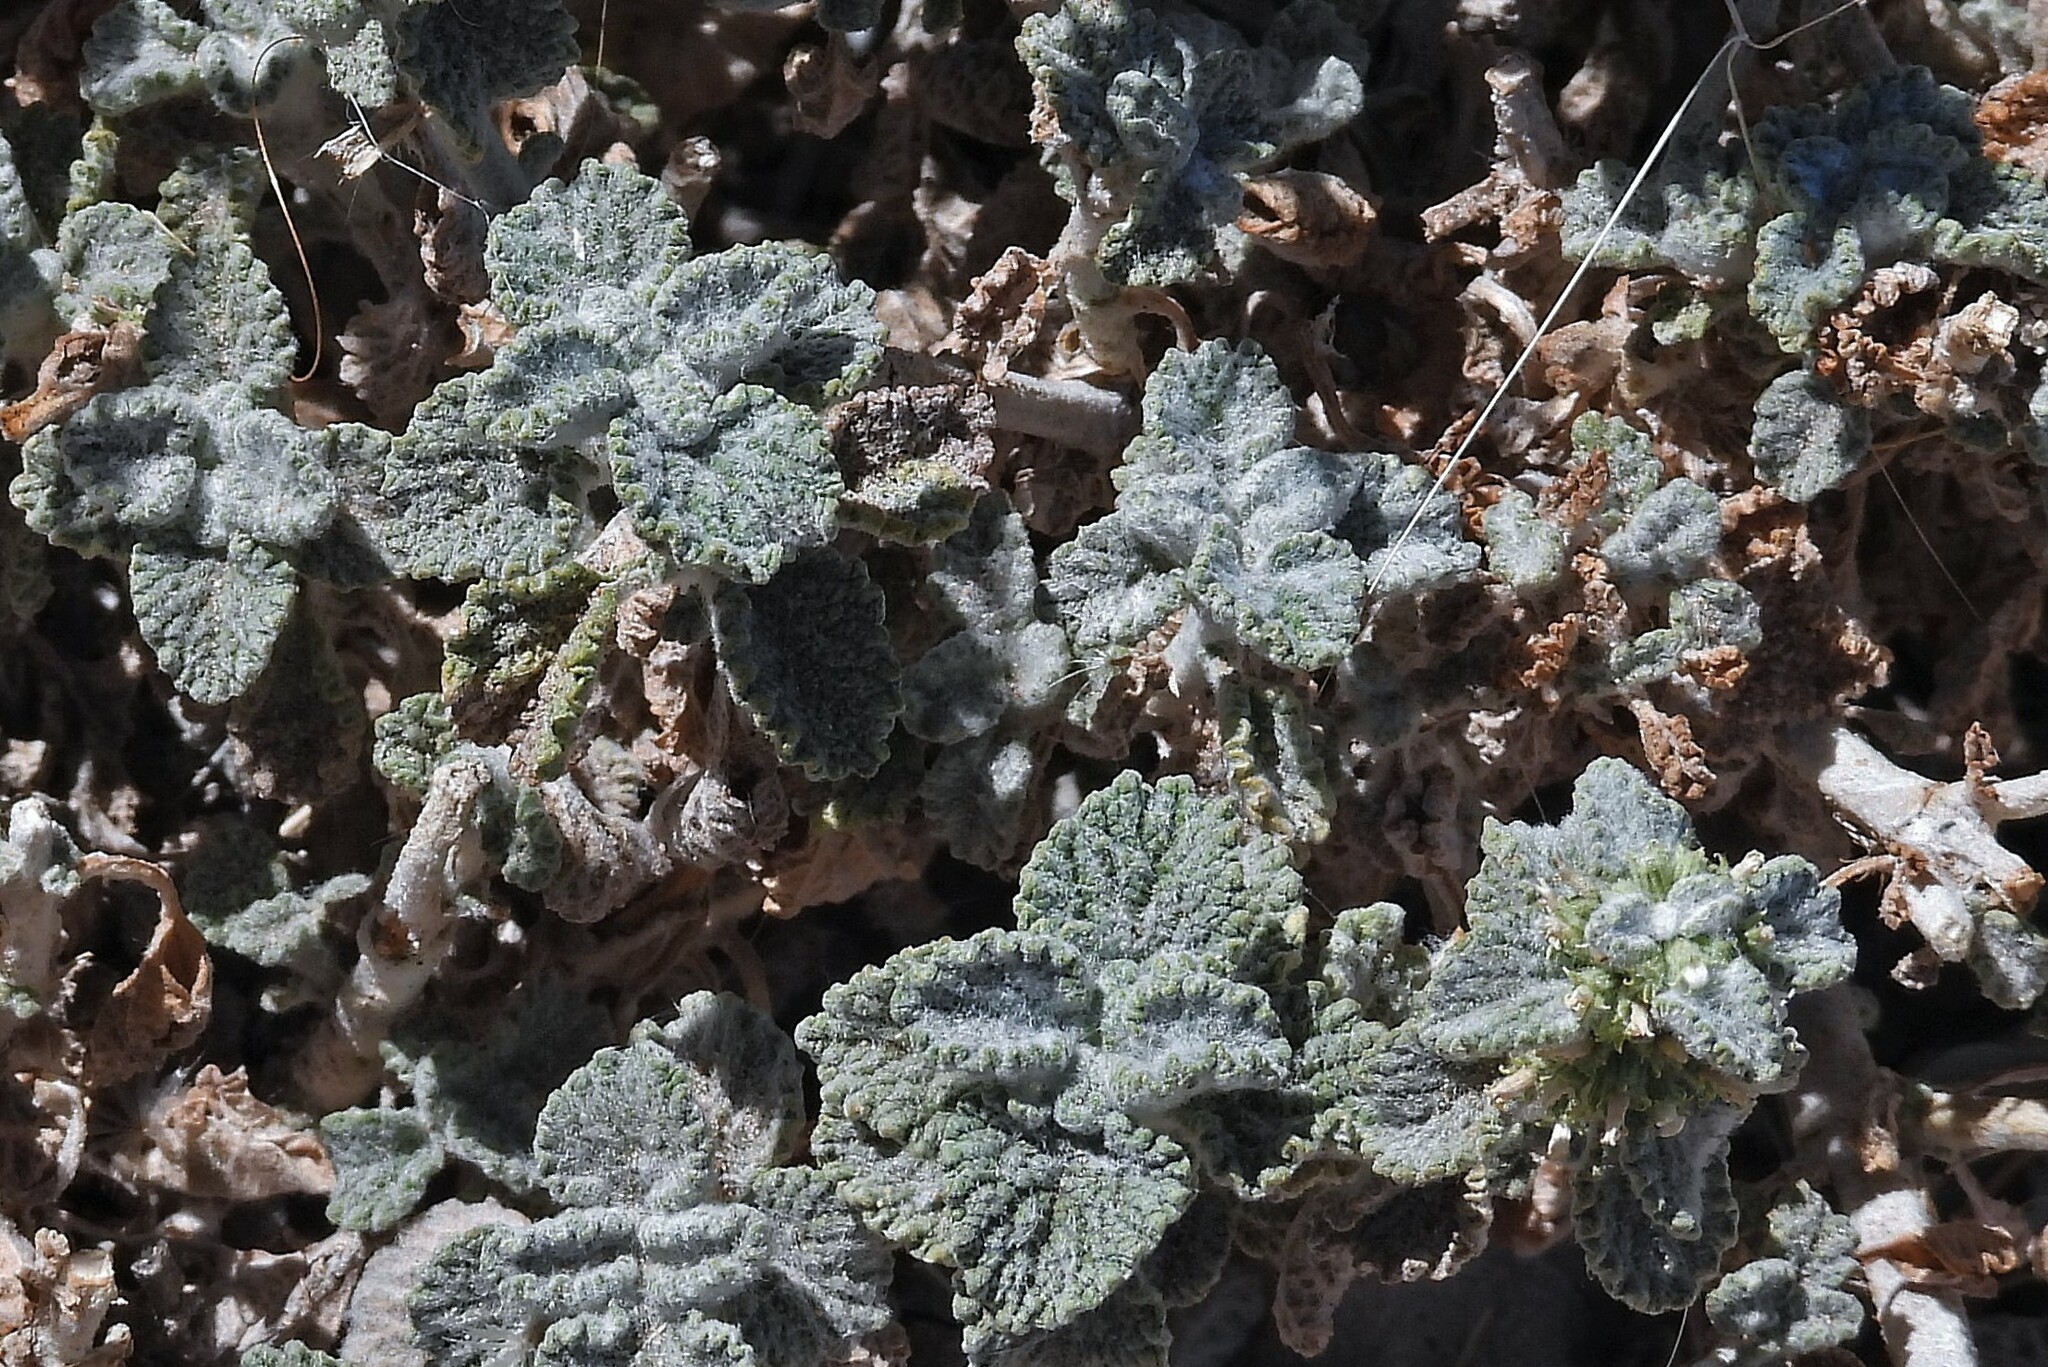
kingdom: Plantae
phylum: Tracheophyta
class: Magnoliopsida
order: Lamiales
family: Lamiaceae
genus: Marrubium
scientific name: Marrubium vulgare
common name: Horehound
